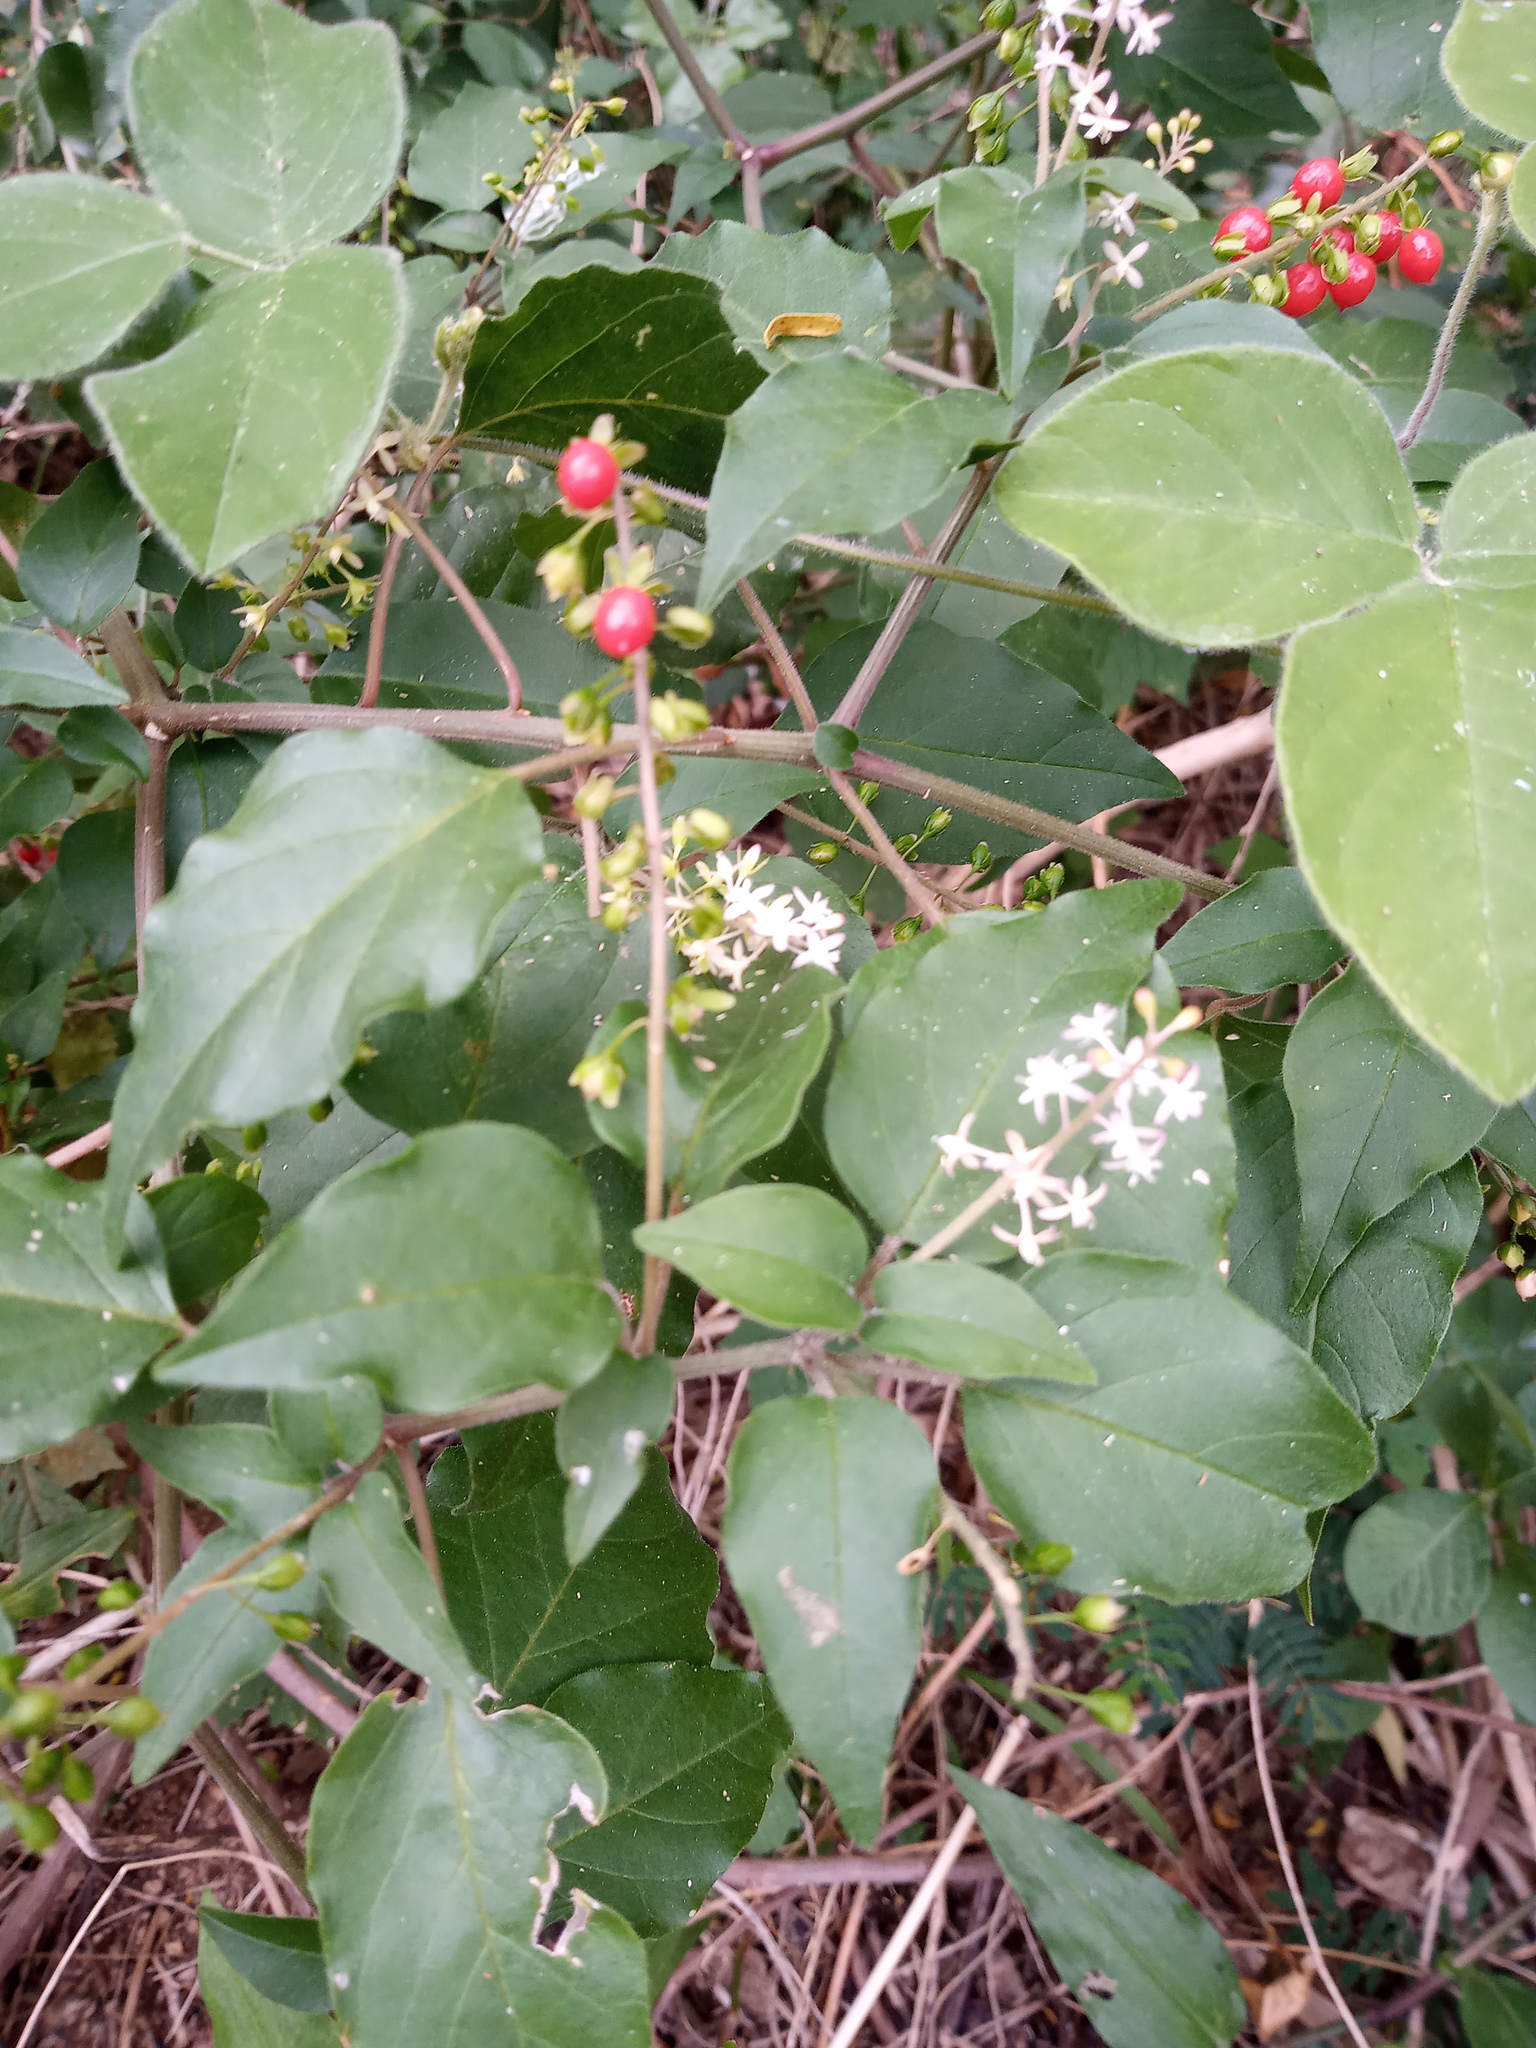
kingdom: Plantae
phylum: Tracheophyta
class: Magnoliopsida
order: Caryophyllales
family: Phytolaccaceae
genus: Rivina
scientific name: Rivina humilis
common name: Rougeplant
